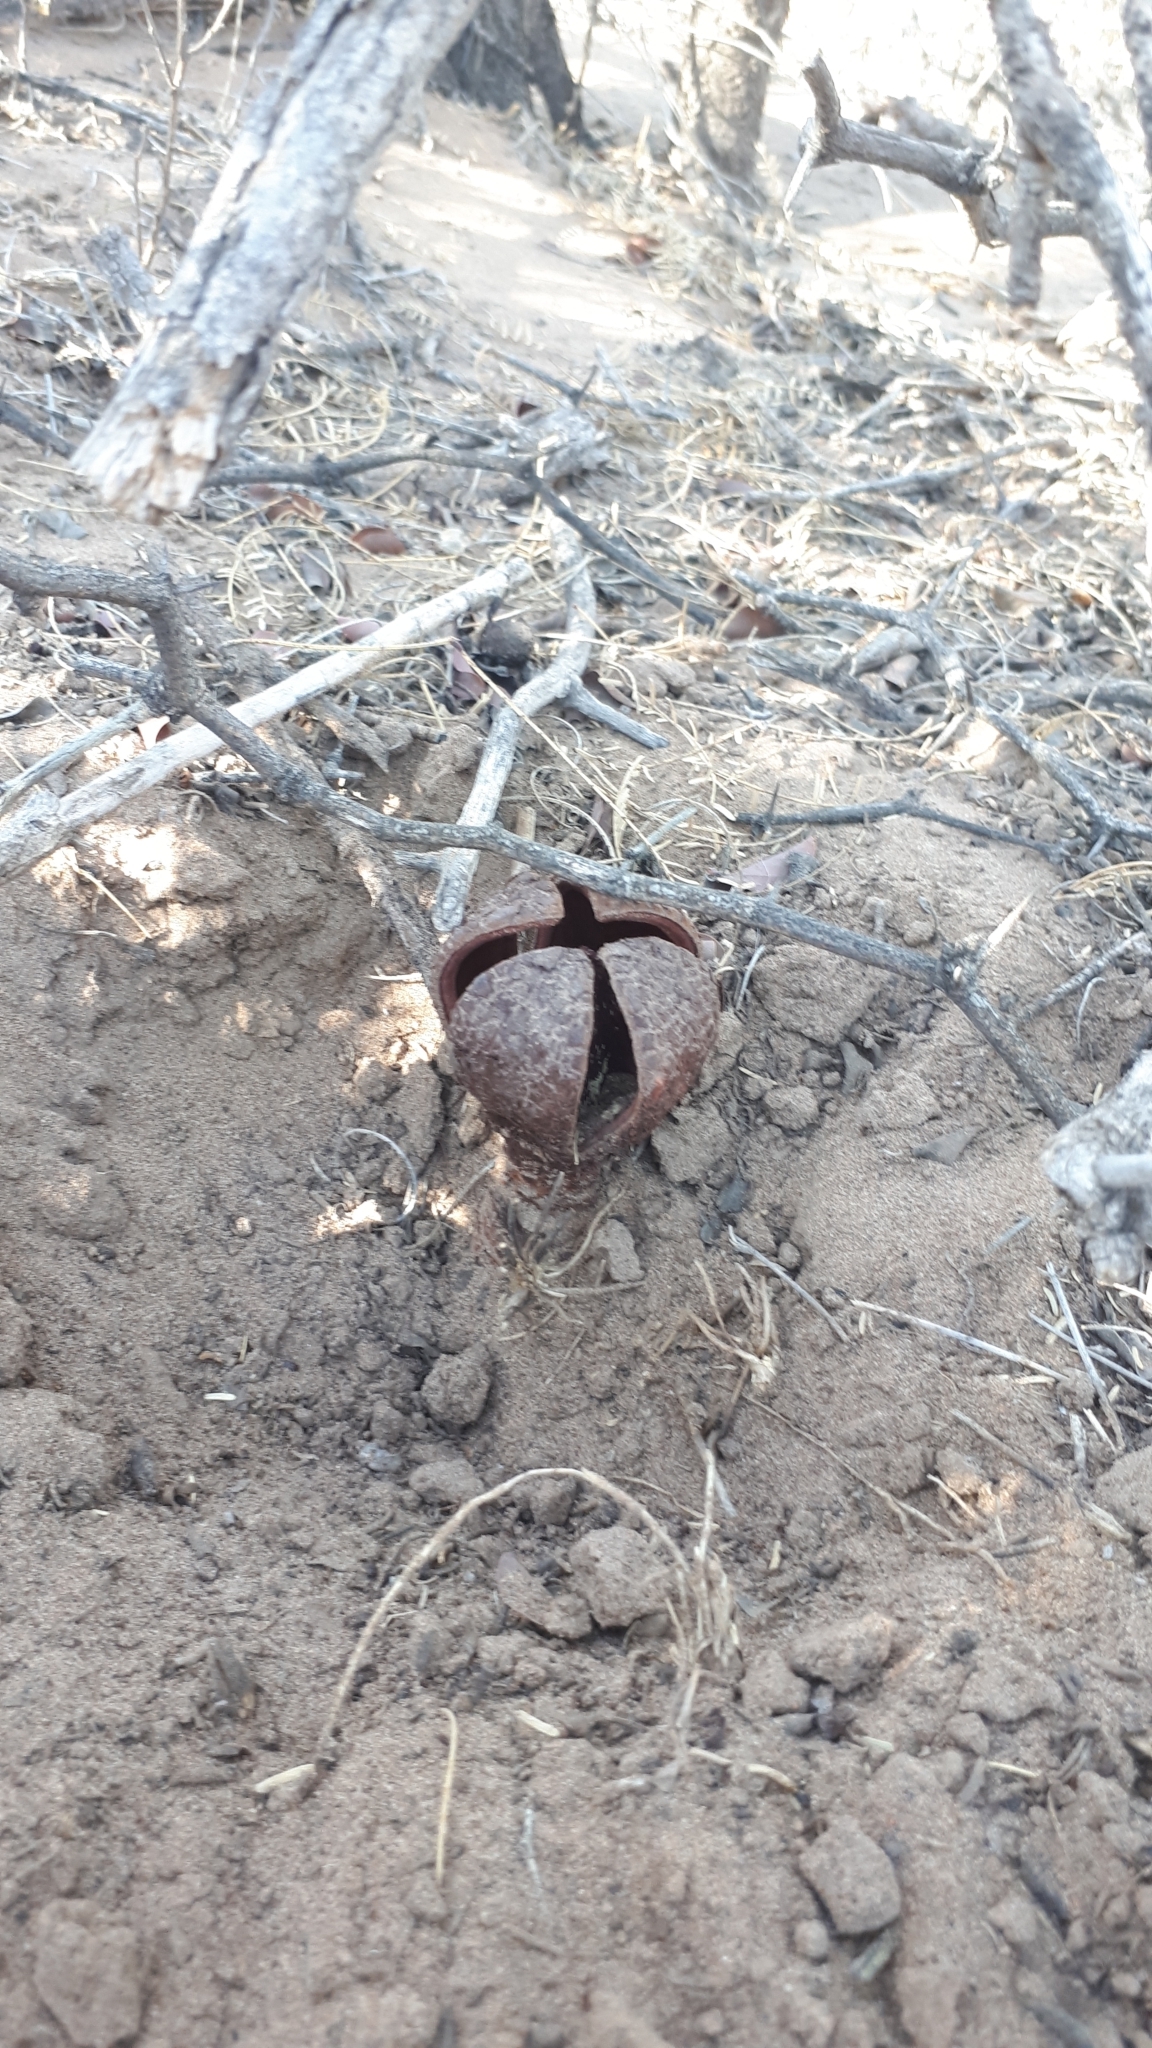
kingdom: Plantae
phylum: Tracheophyta
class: Magnoliopsida
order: Piperales
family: Hydnoraceae
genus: Prosopanche
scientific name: Prosopanche americana
